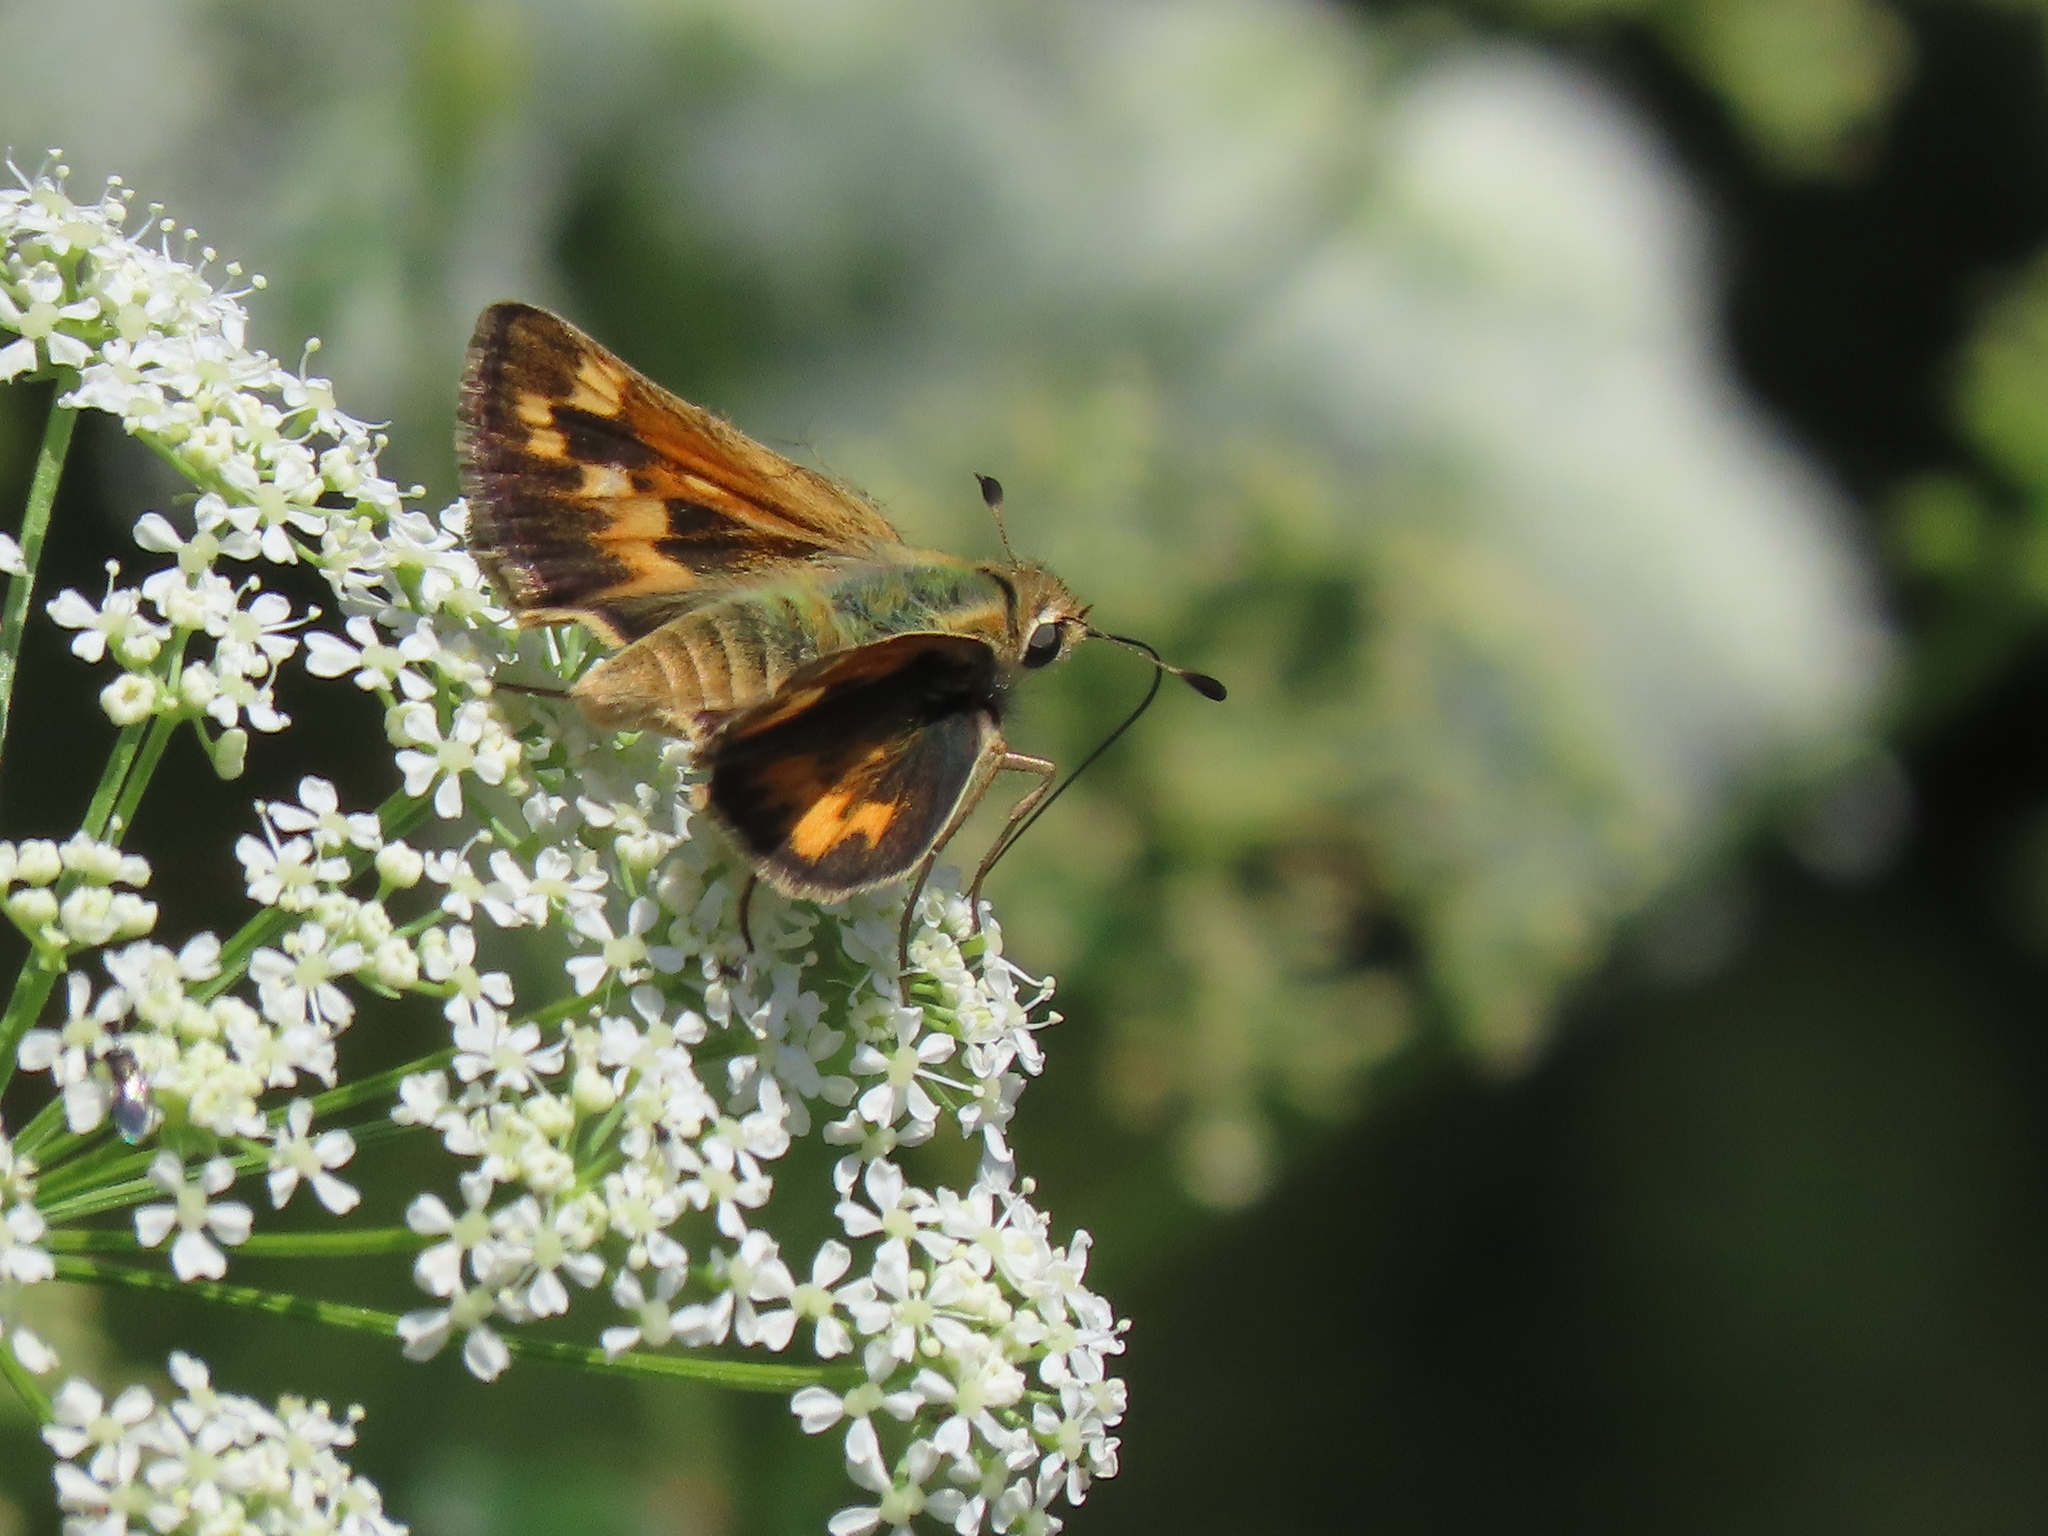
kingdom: Animalia
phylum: Arthropoda
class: Insecta
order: Lepidoptera
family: Hesperiidae
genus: Polites
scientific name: Polites sabuleti
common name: Sandhill skipper
